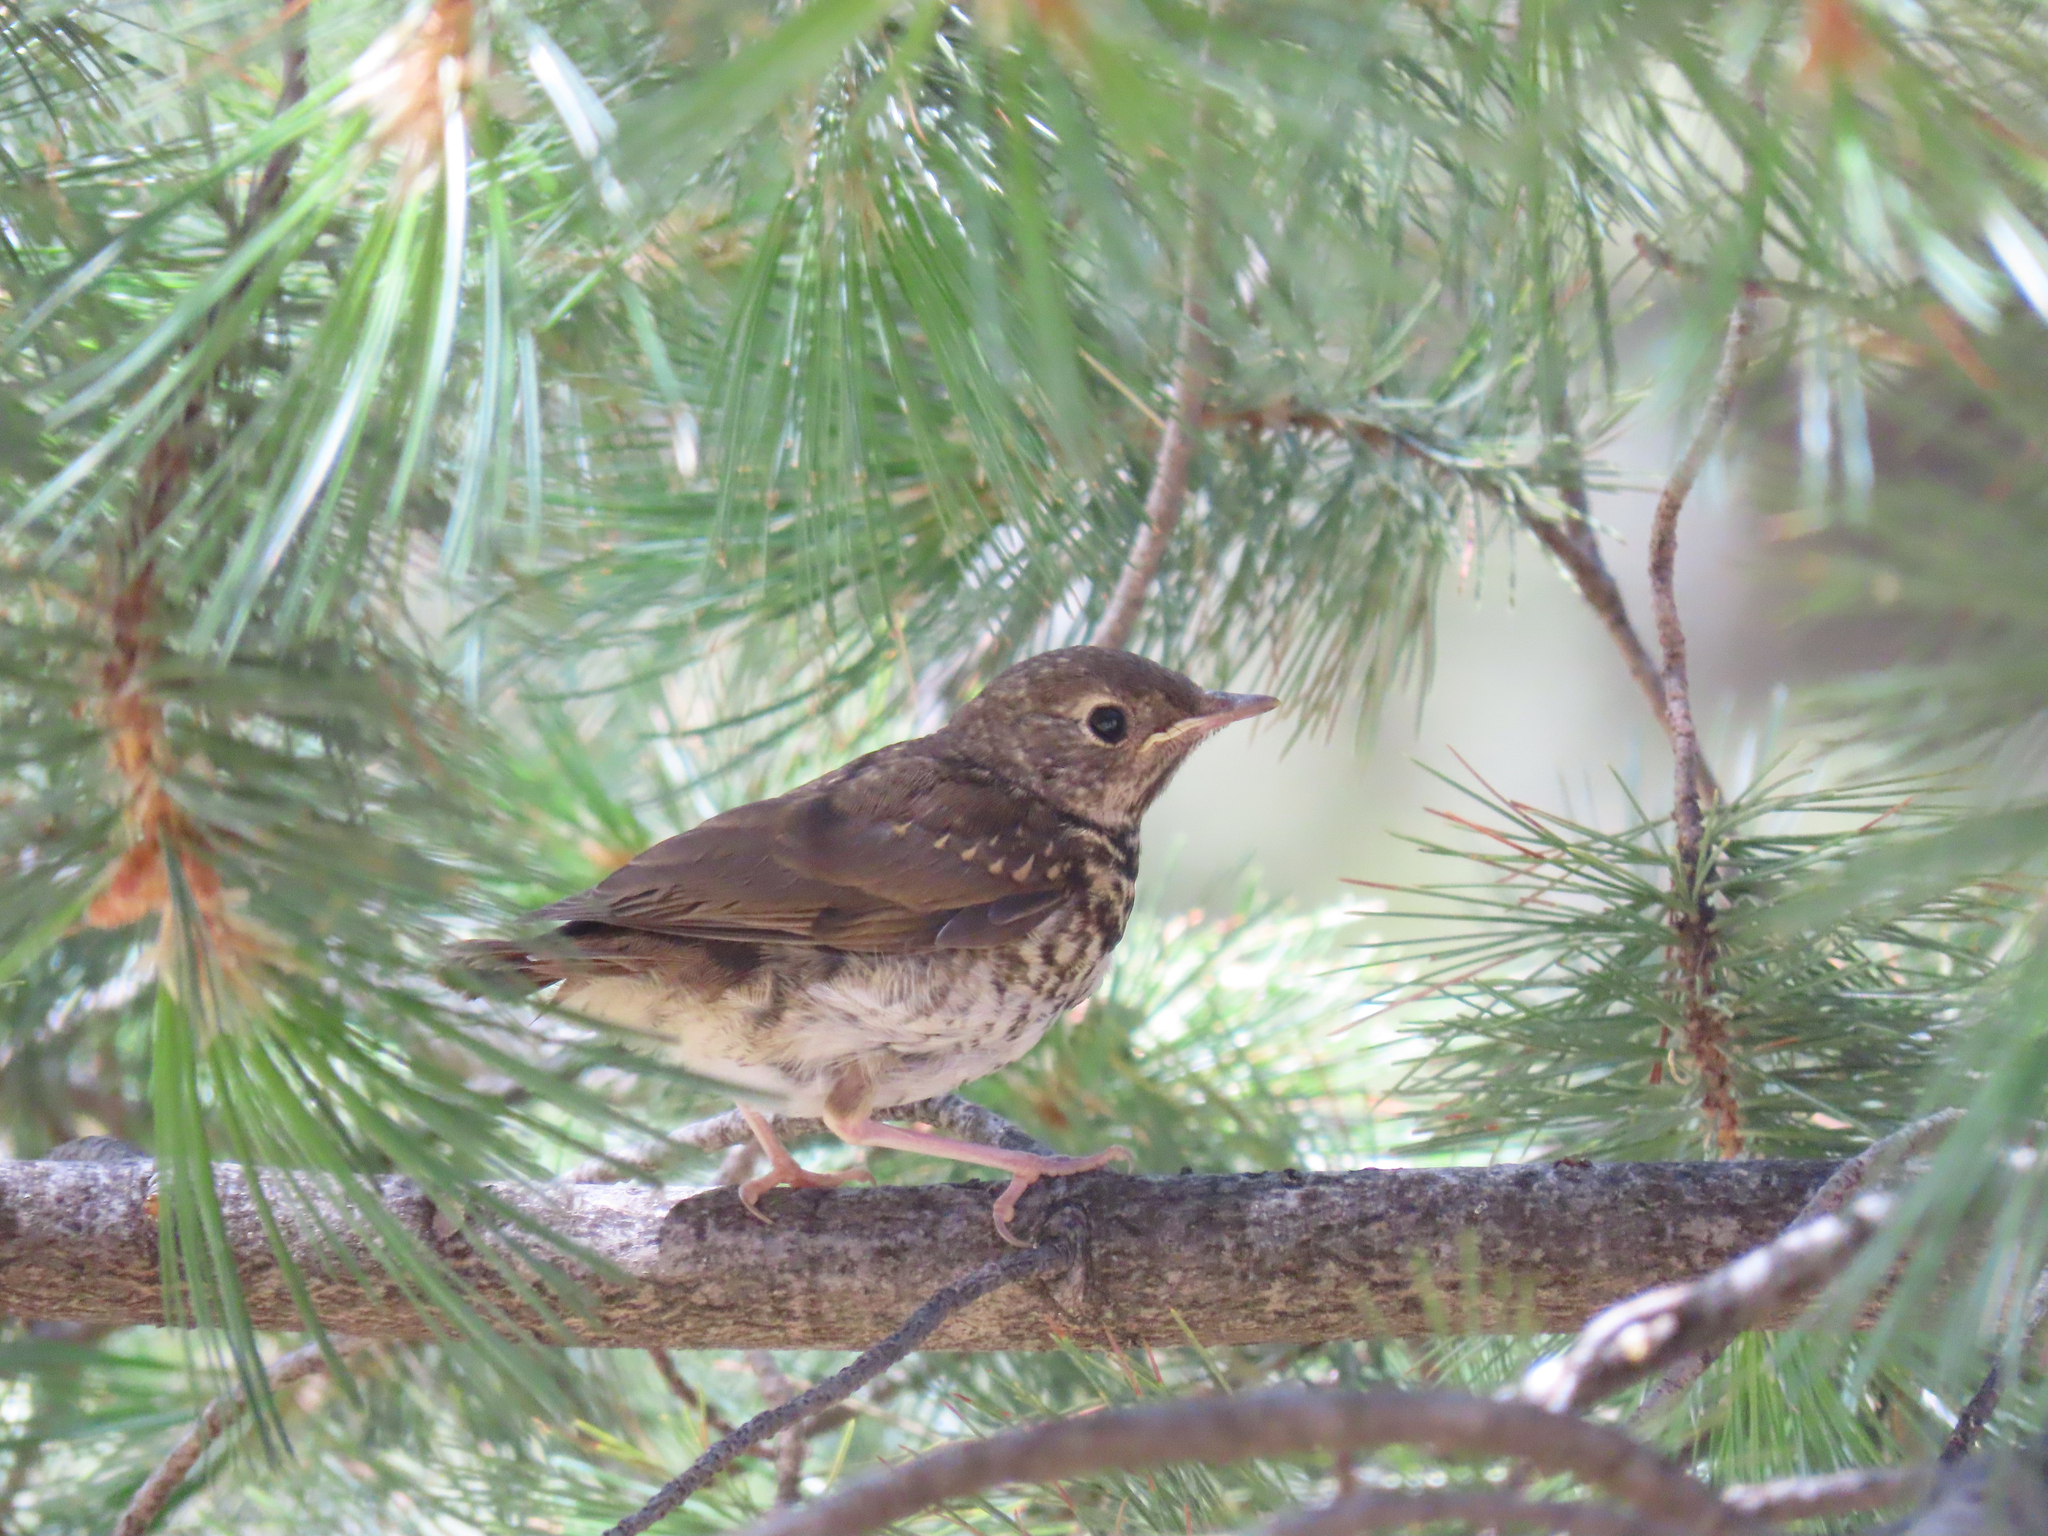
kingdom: Animalia
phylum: Chordata
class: Aves
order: Passeriformes
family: Turdidae
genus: Catharus
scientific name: Catharus guttatus
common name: Hermit thrush
